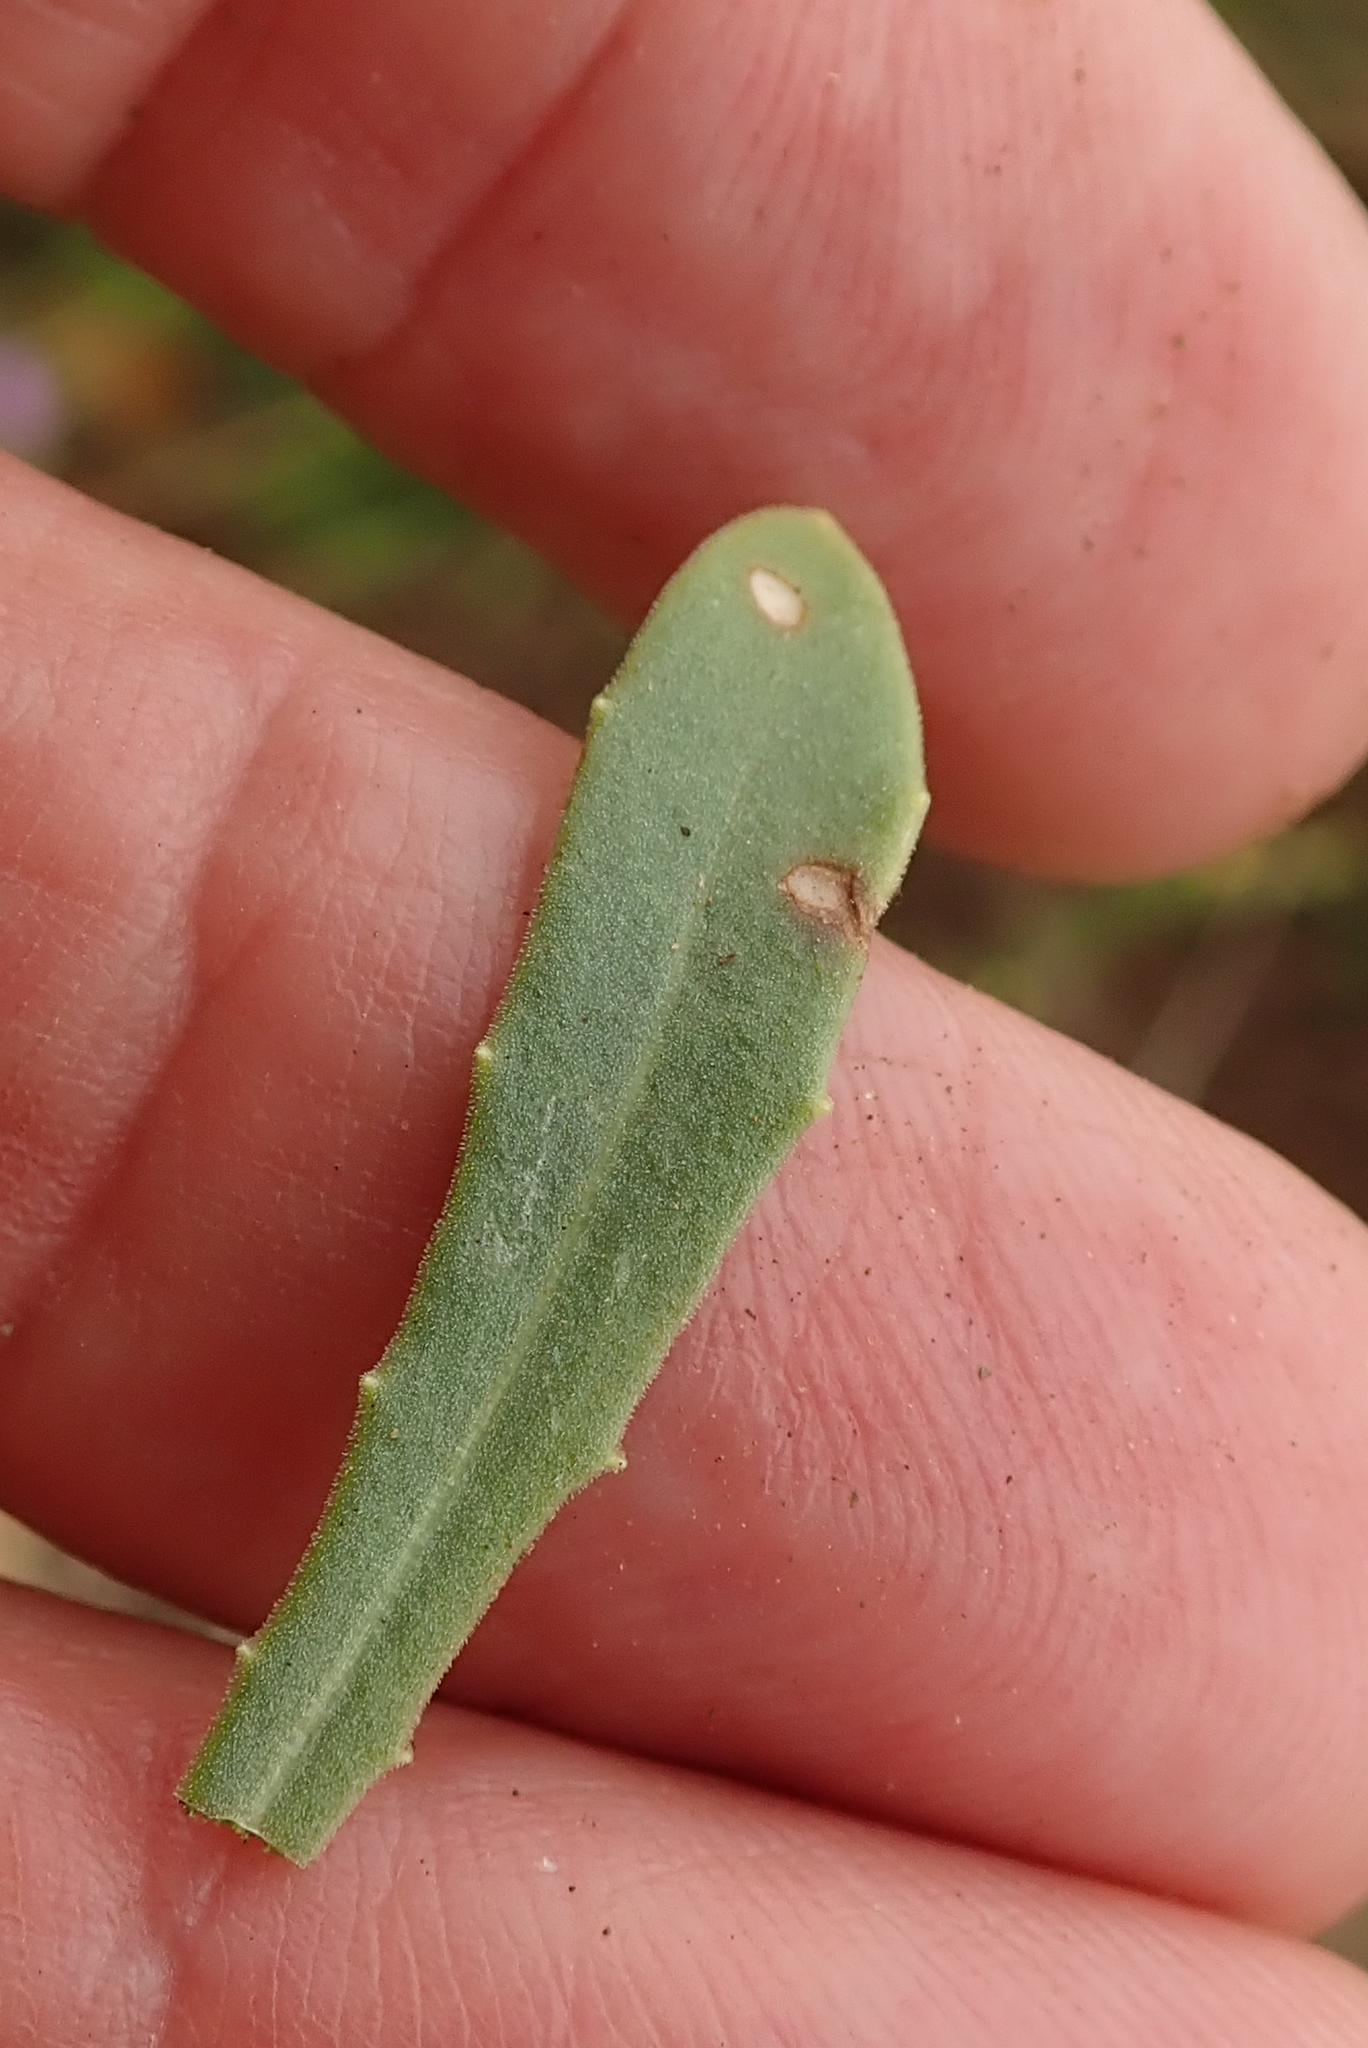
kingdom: Plantae
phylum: Tracheophyta
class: Magnoliopsida
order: Asterales
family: Asteraceae
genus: Dimorphotheca
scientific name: Dimorphotheca caulescens
